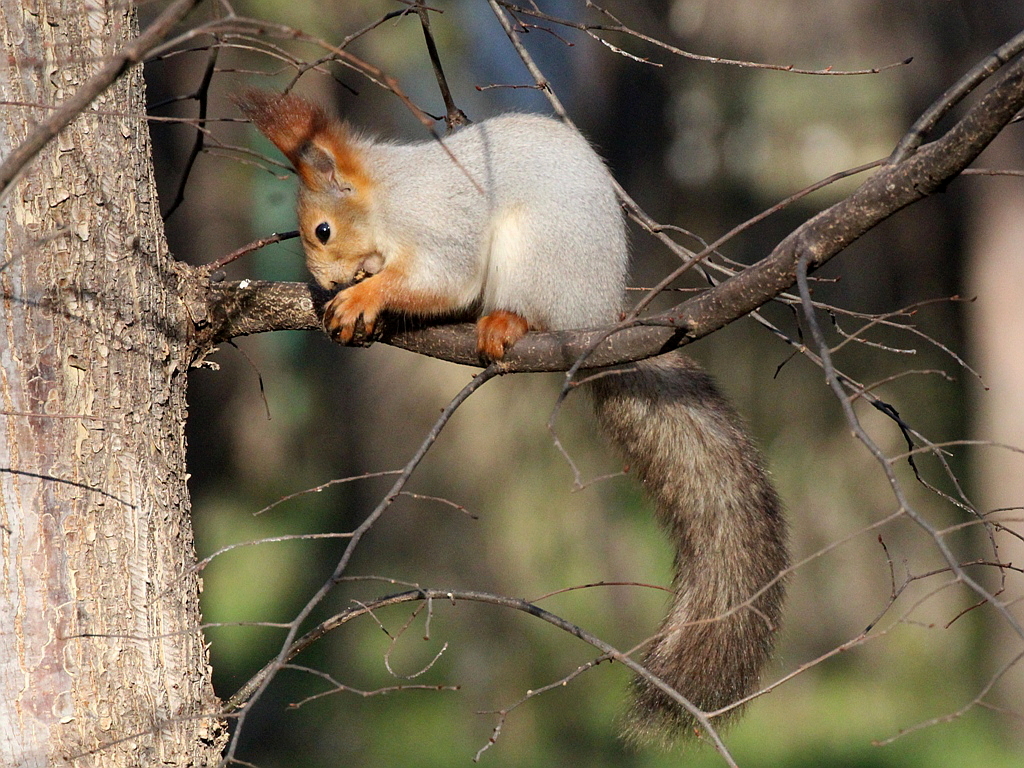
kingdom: Animalia
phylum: Chordata
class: Mammalia
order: Rodentia
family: Sciuridae
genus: Sciurus
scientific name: Sciurus vulgaris
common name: Eurasian red squirrel
